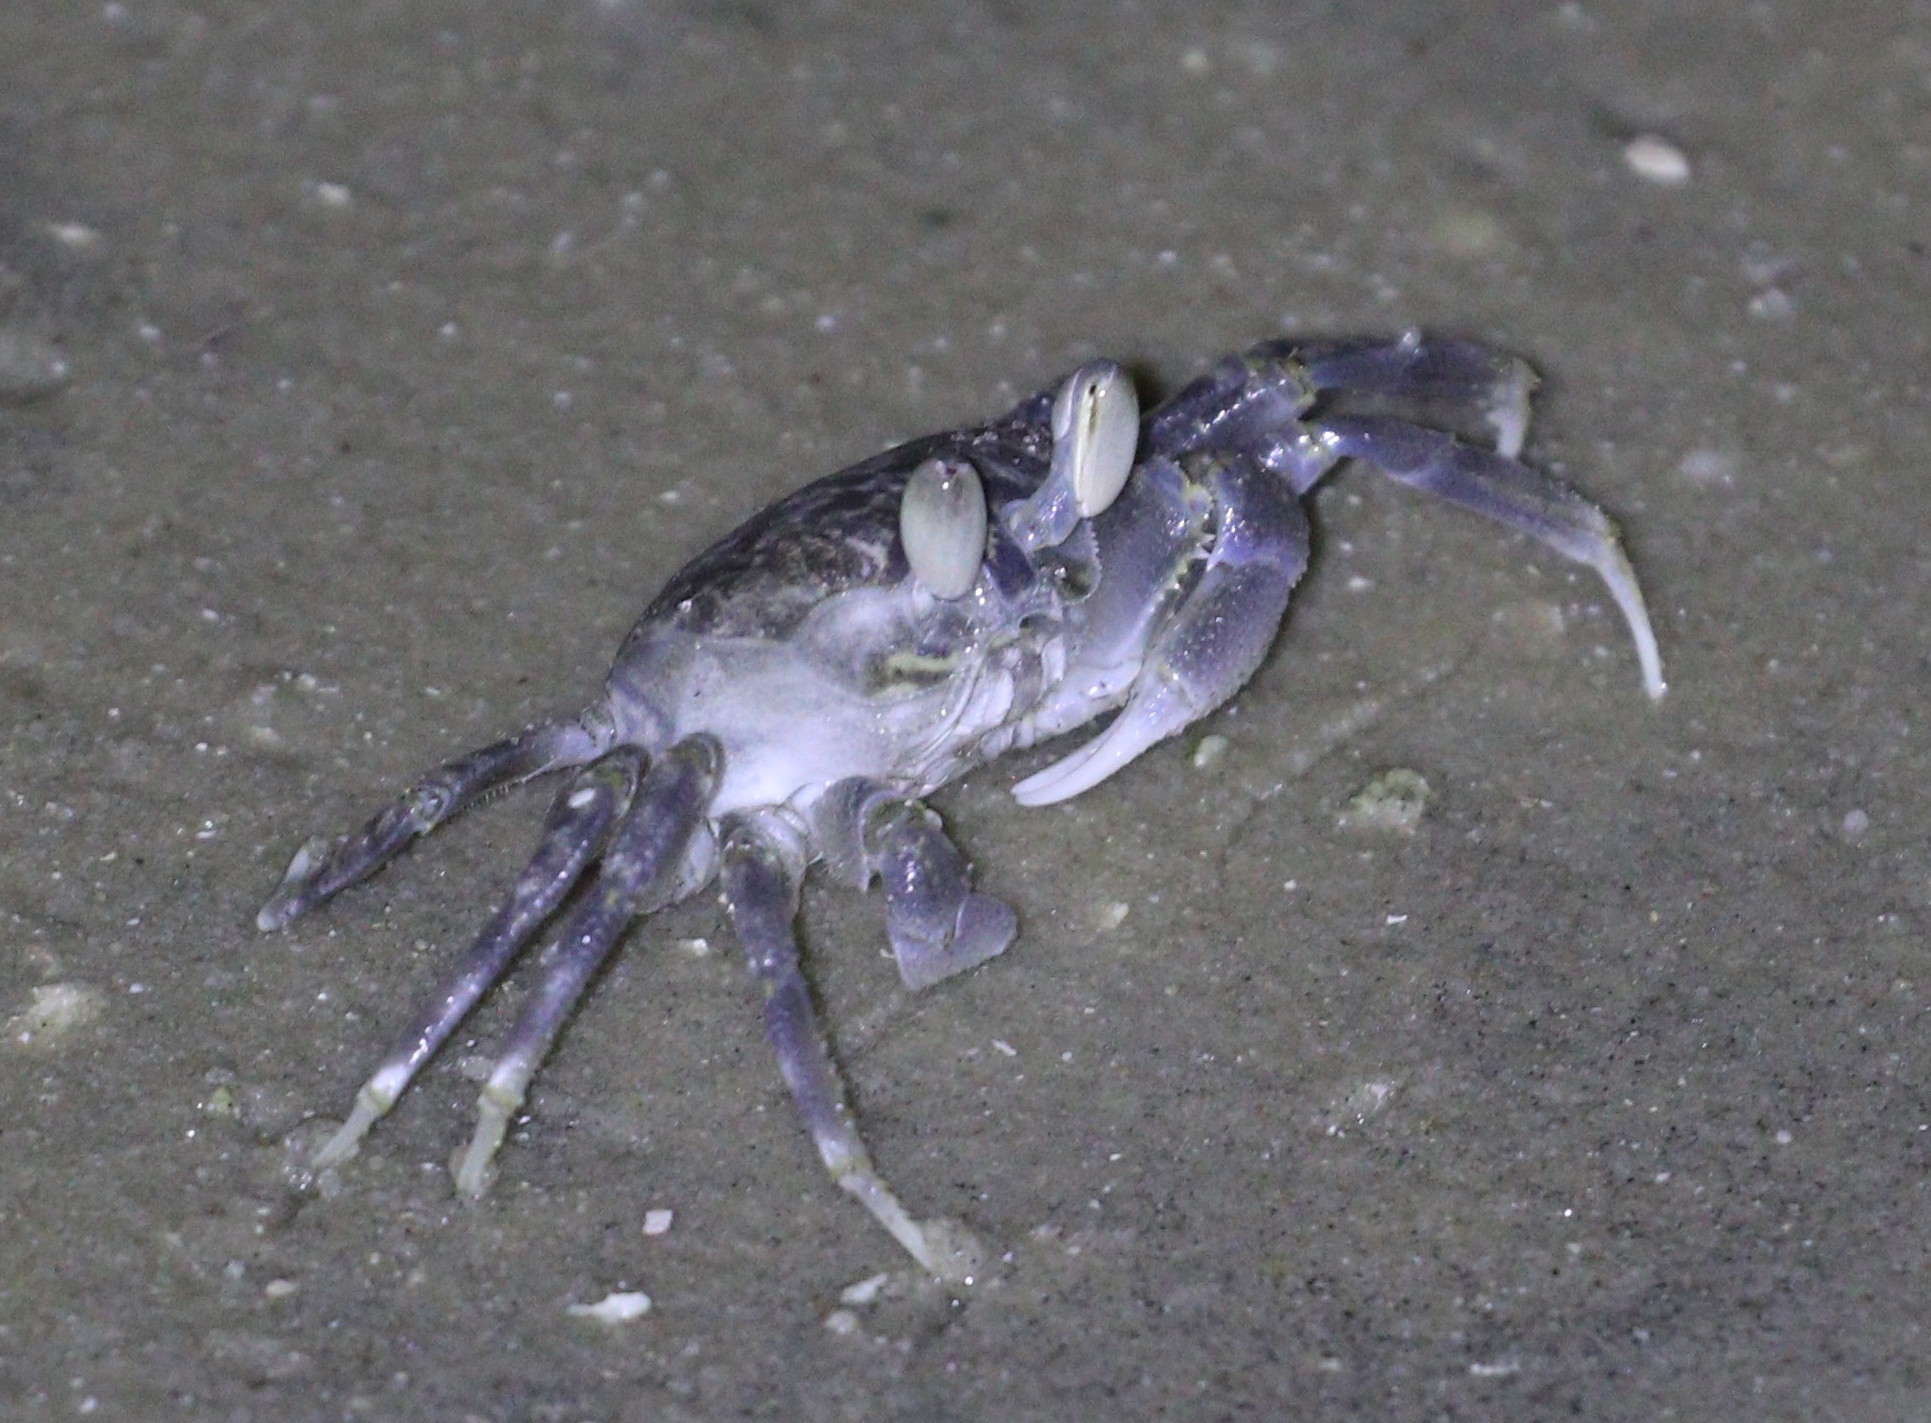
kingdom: Animalia
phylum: Arthropoda
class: Malacostraca
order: Decapoda
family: Ocypodidae
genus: Ocypode
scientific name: Ocypode
